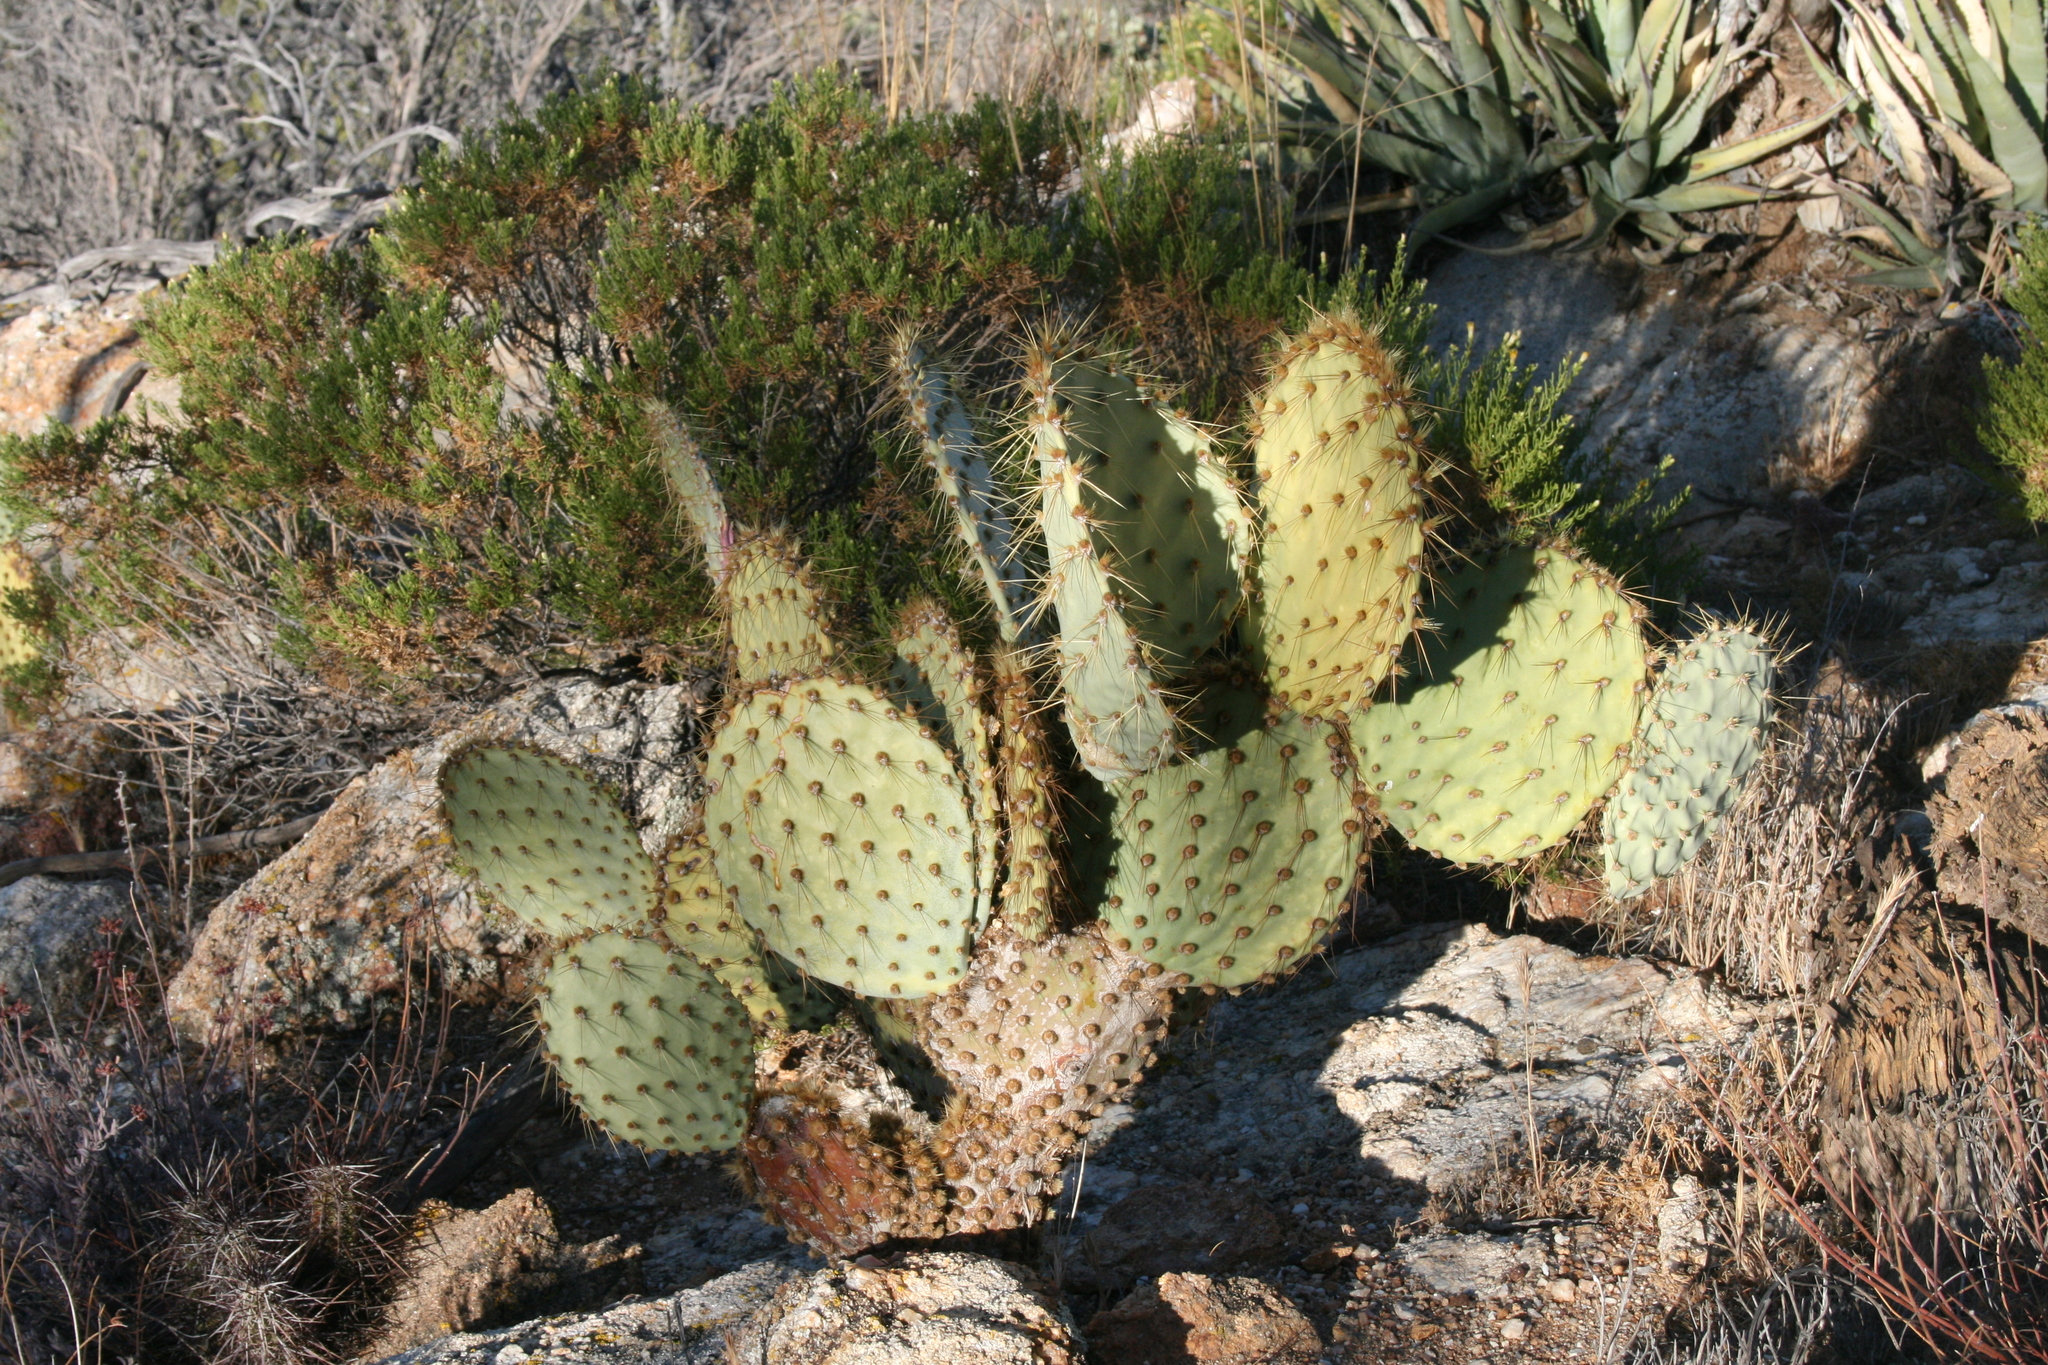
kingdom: Plantae
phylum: Tracheophyta
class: Magnoliopsida
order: Caryophyllales
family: Cactaceae
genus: Opuntia
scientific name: Opuntia chlorotica
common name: Dollar-joint prickly-pear
